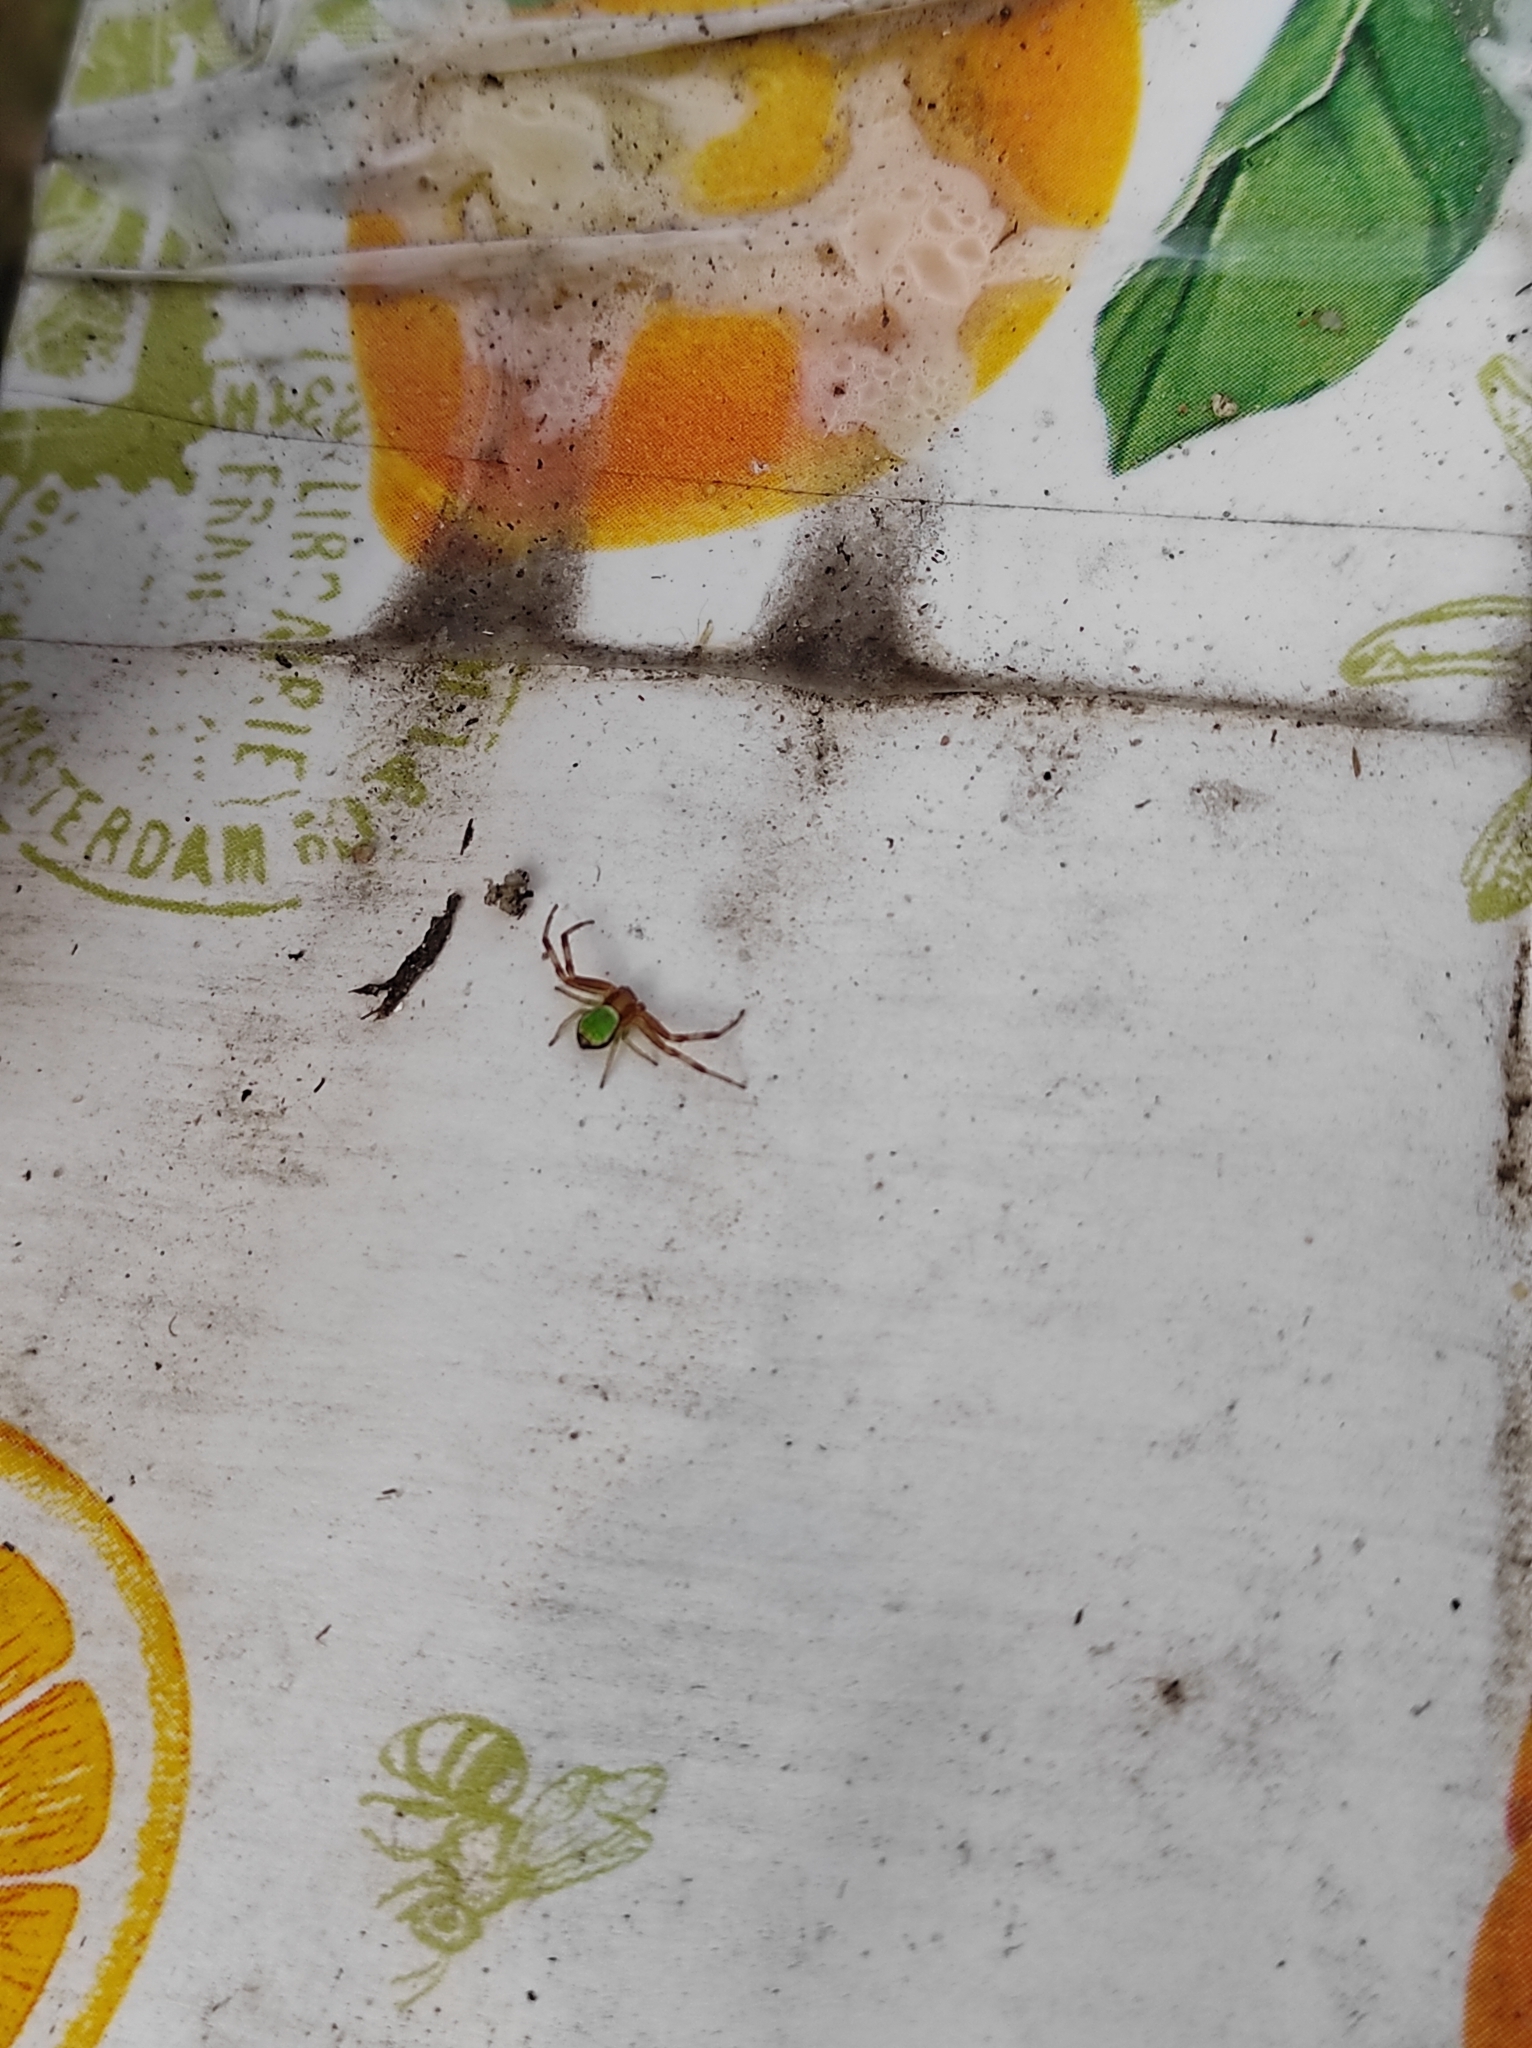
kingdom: Animalia
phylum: Arthropoda
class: Arachnida
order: Araneae
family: Thomisidae
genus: Ebrechtella
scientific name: Ebrechtella tricuspidata
